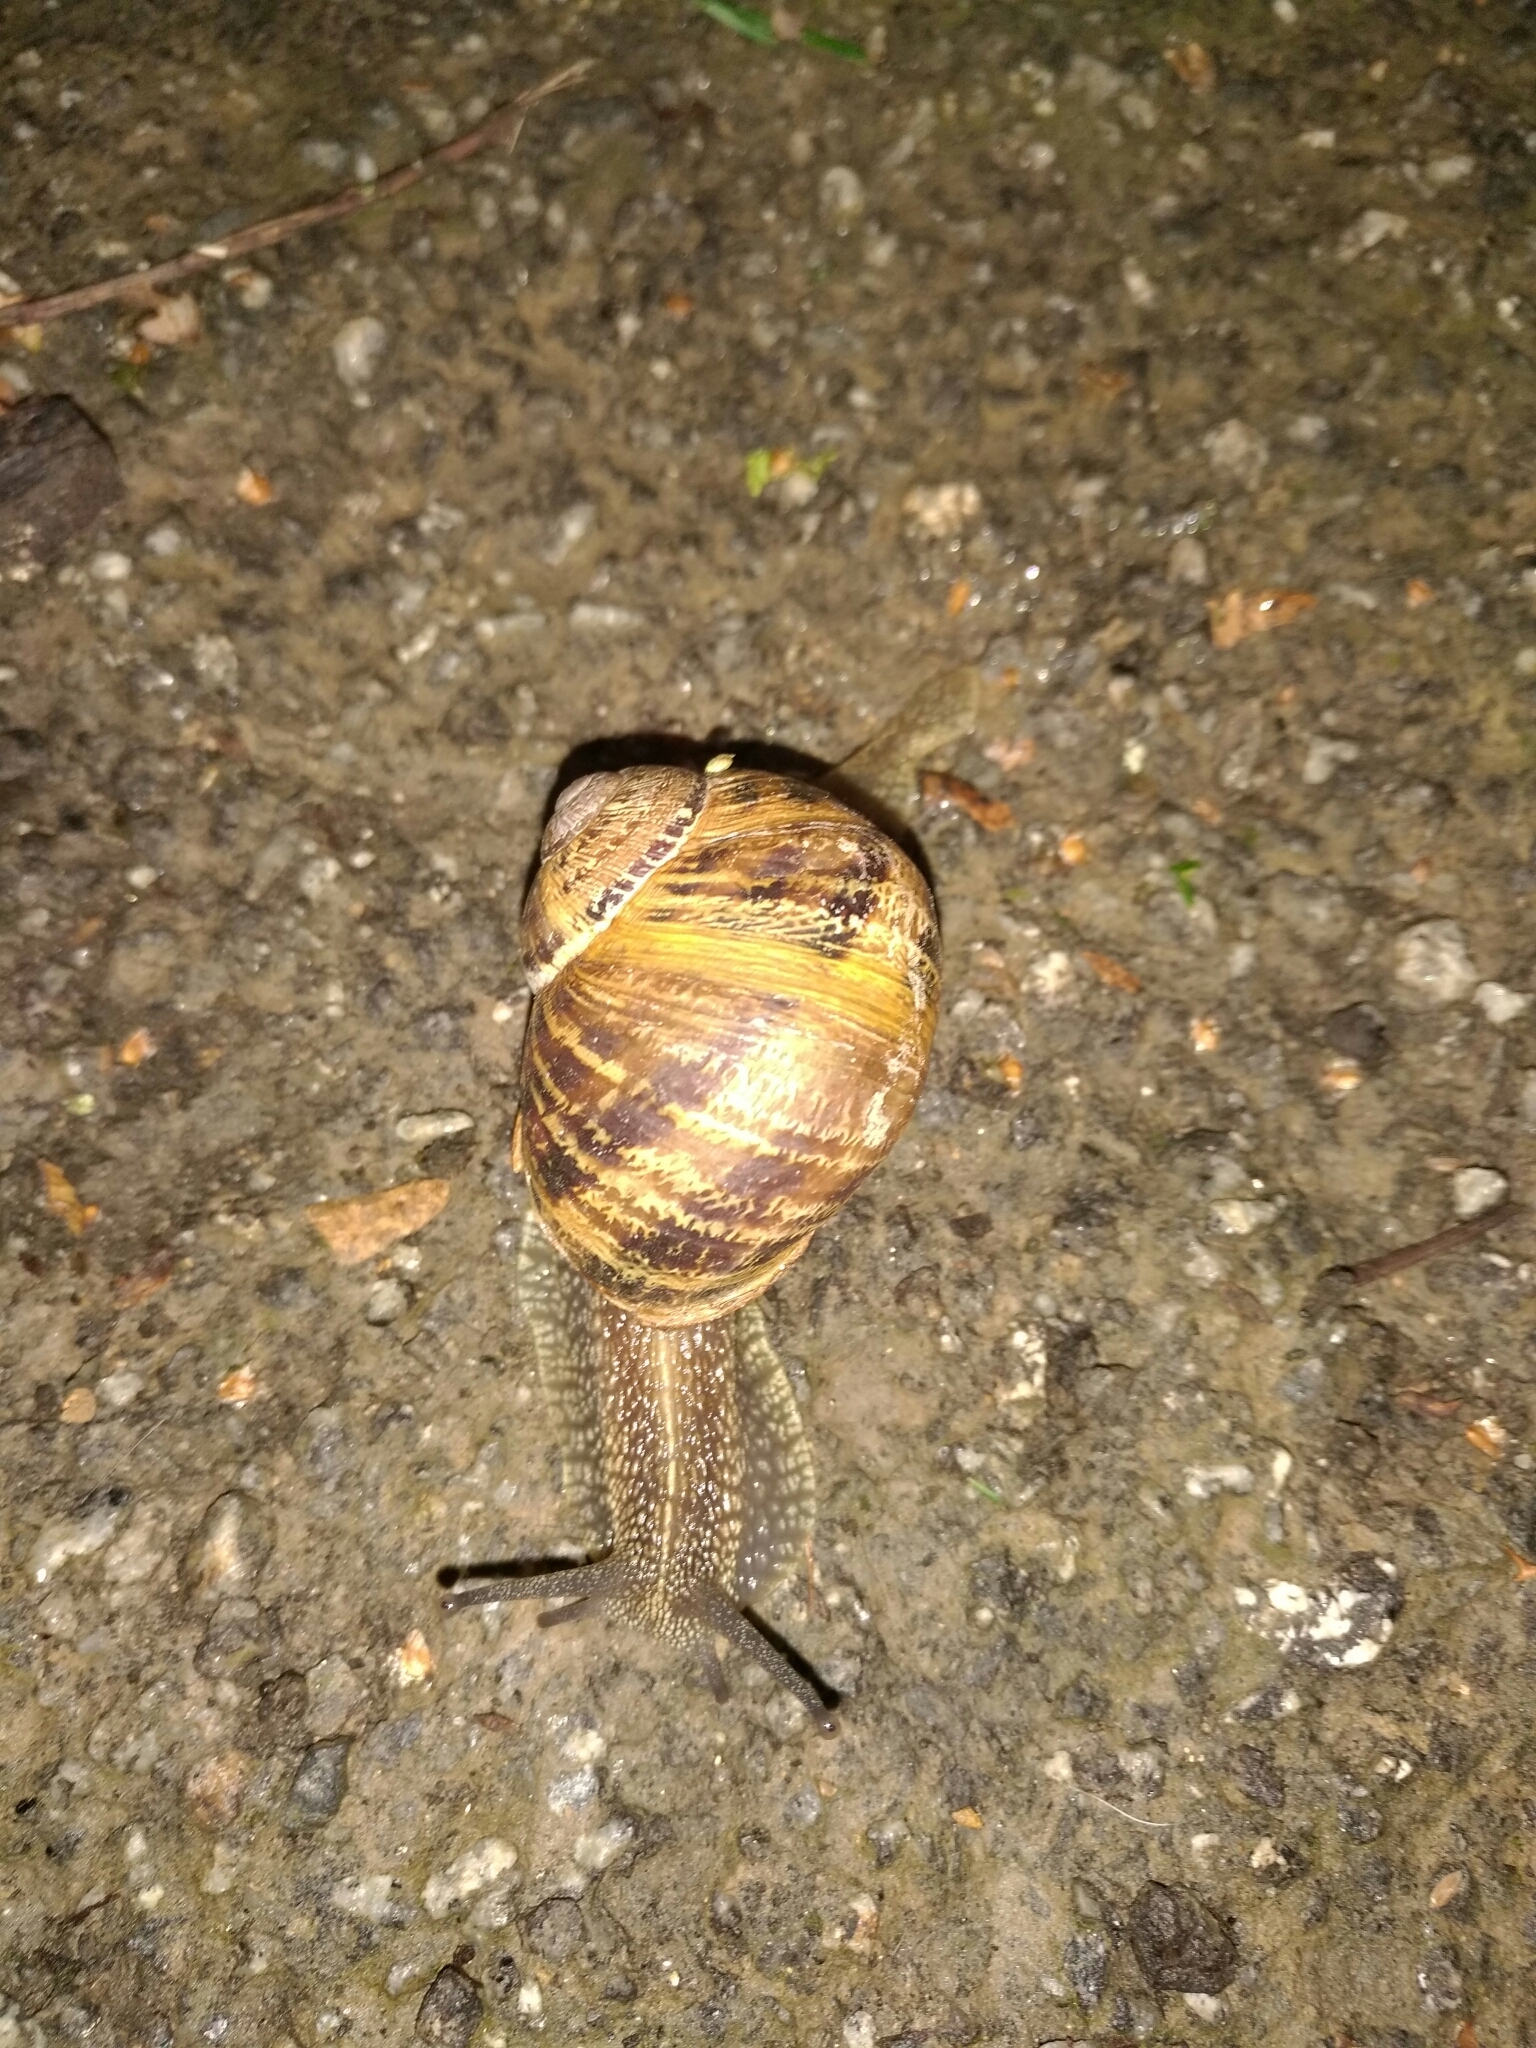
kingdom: Animalia
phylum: Mollusca
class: Gastropoda
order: Stylommatophora
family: Helicidae
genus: Cornu
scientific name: Cornu aspersum
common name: Brown garden snail
